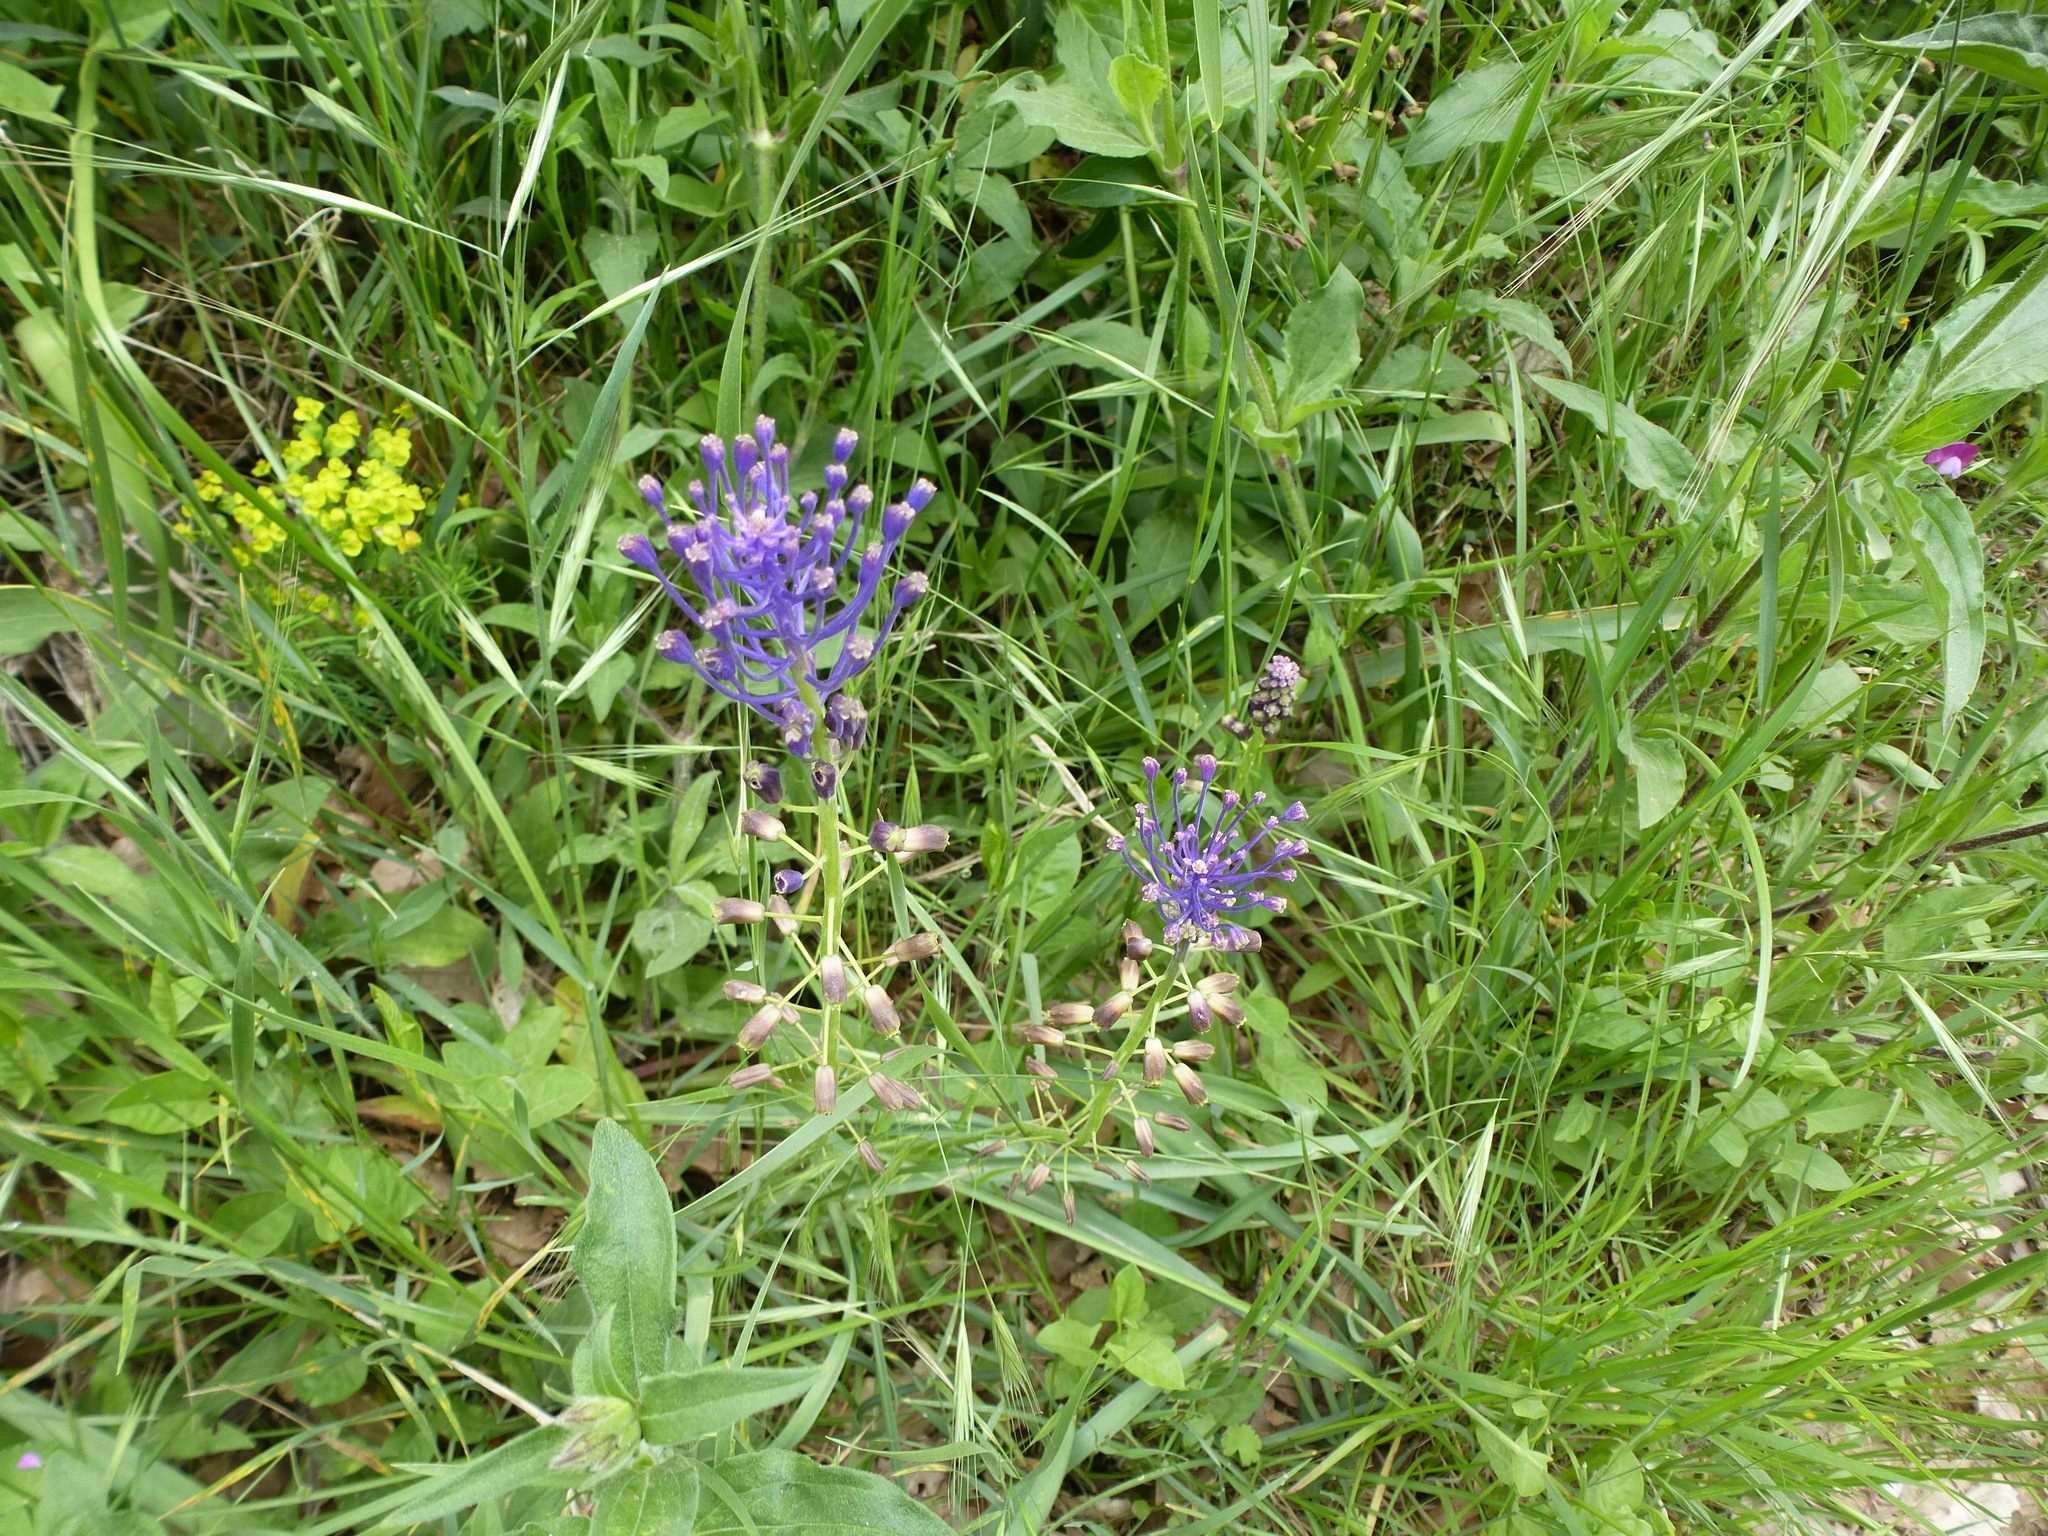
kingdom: Plantae
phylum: Tracheophyta
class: Liliopsida
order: Asparagales
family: Asparagaceae
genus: Muscari
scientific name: Muscari comosum
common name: Tassel hyacinth
